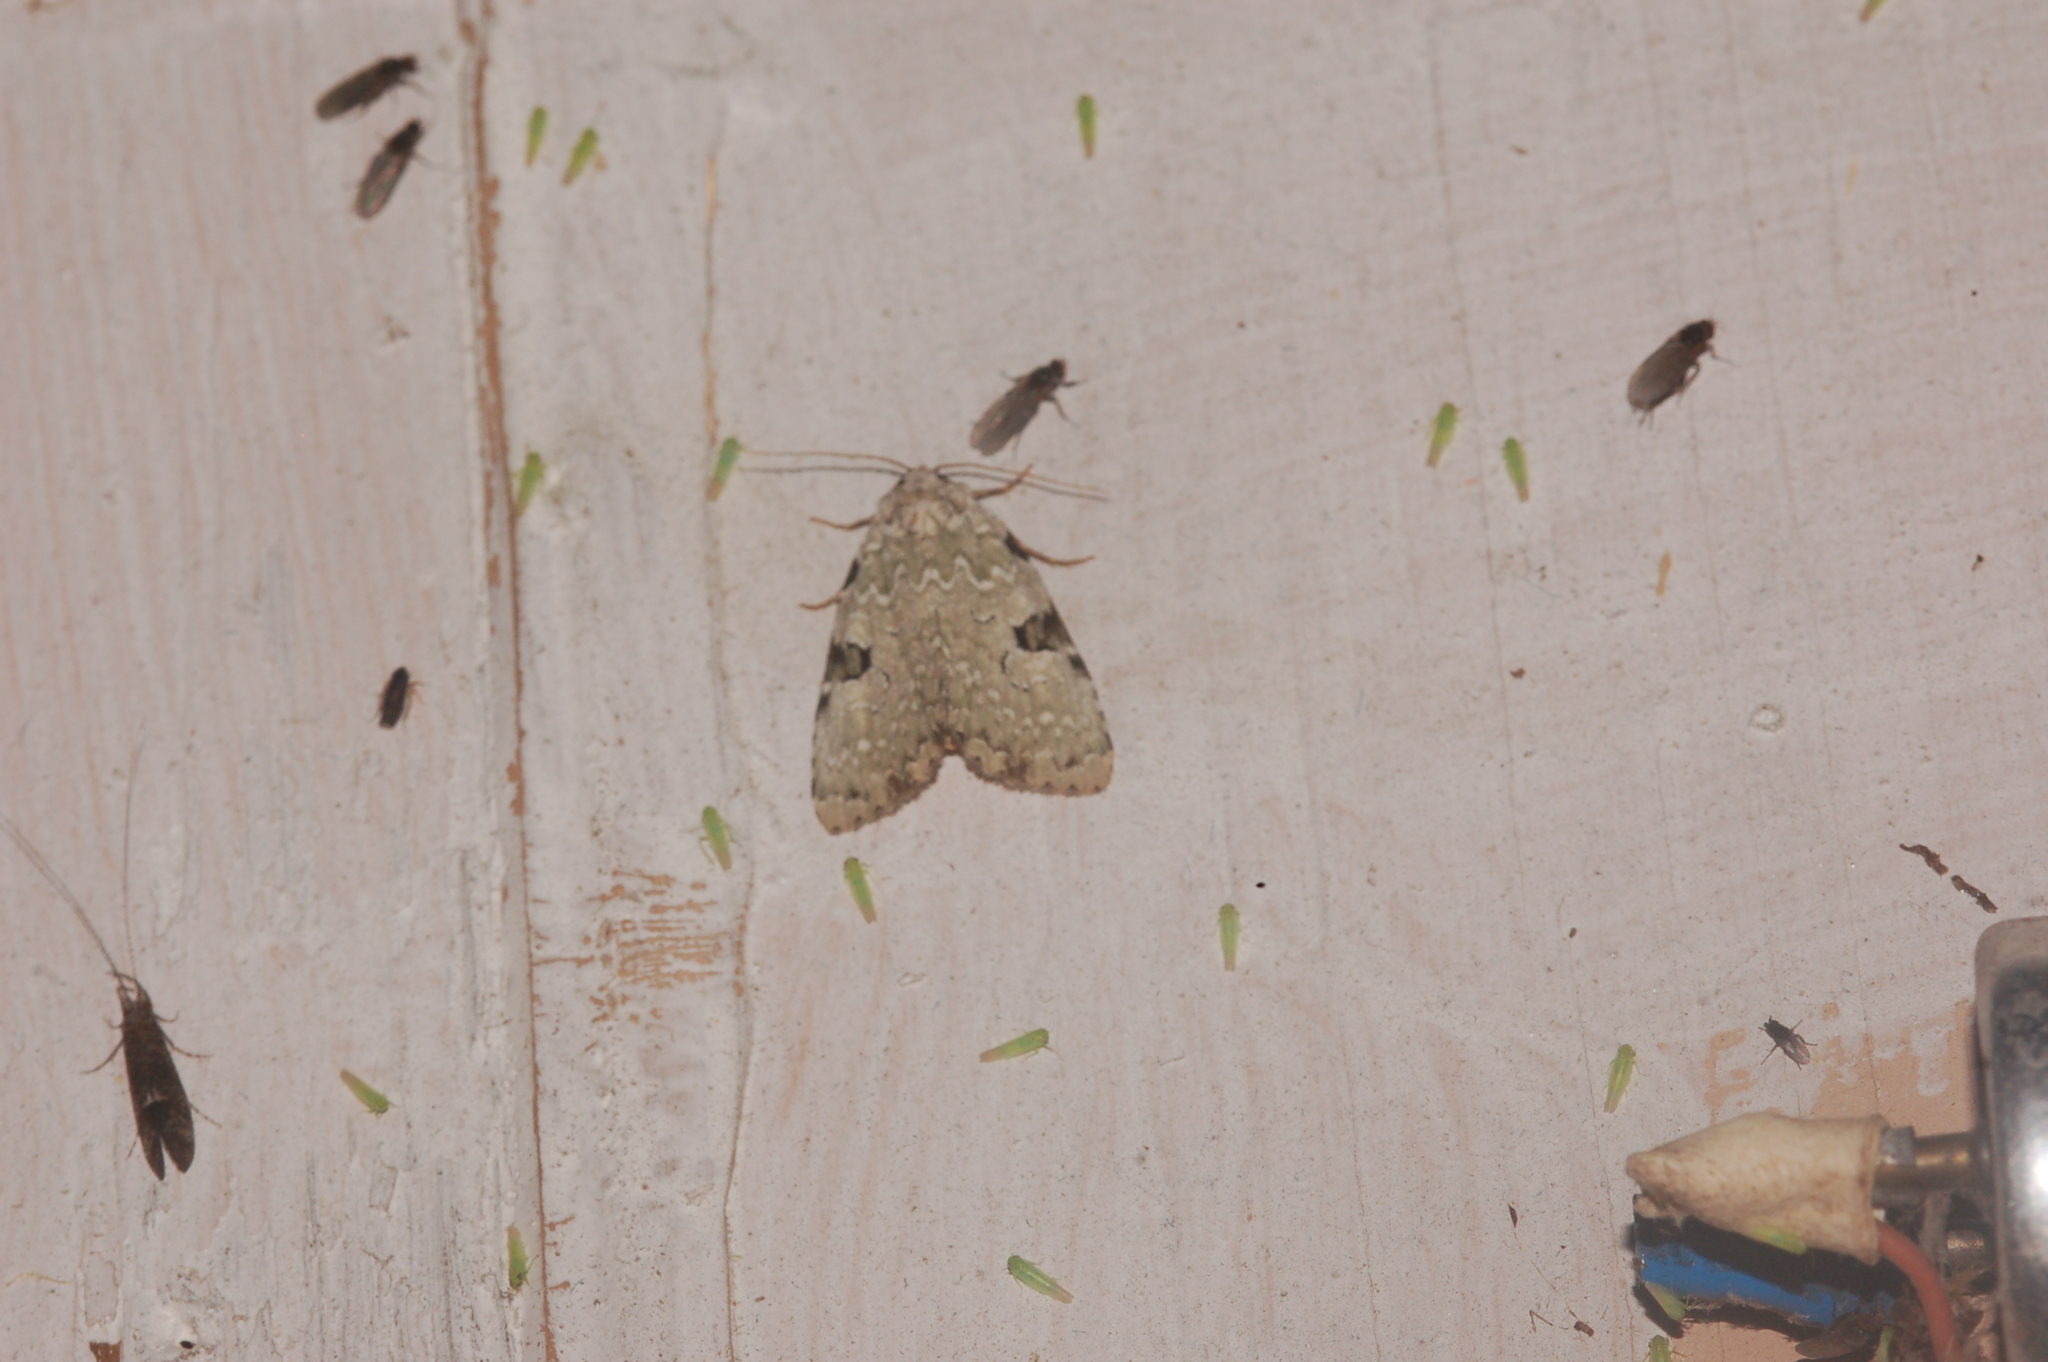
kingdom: Animalia
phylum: Arthropoda
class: Insecta
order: Lepidoptera
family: Noctuidae
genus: Leuconycta
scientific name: Leuconycta diphteroides
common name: Green leuconycta moth
